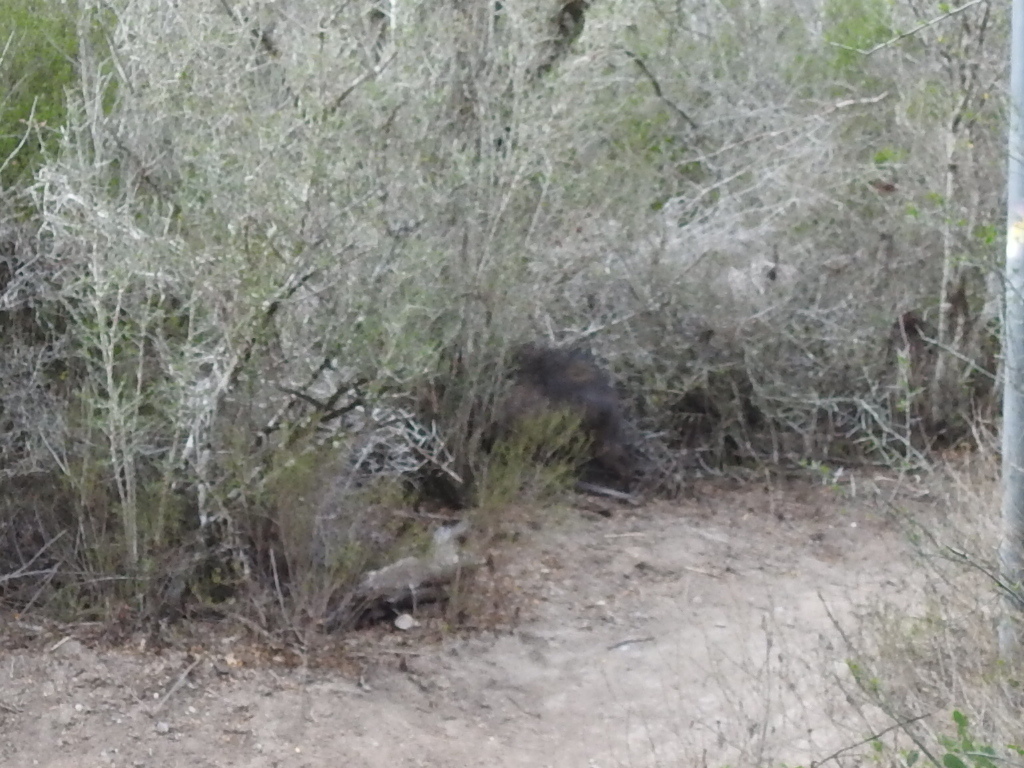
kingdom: Animalia
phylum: Chordata
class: Mammalia
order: Artiodactyla
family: Tayassuidae
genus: Pecari
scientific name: Pecari tajacu
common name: Collared peccary
